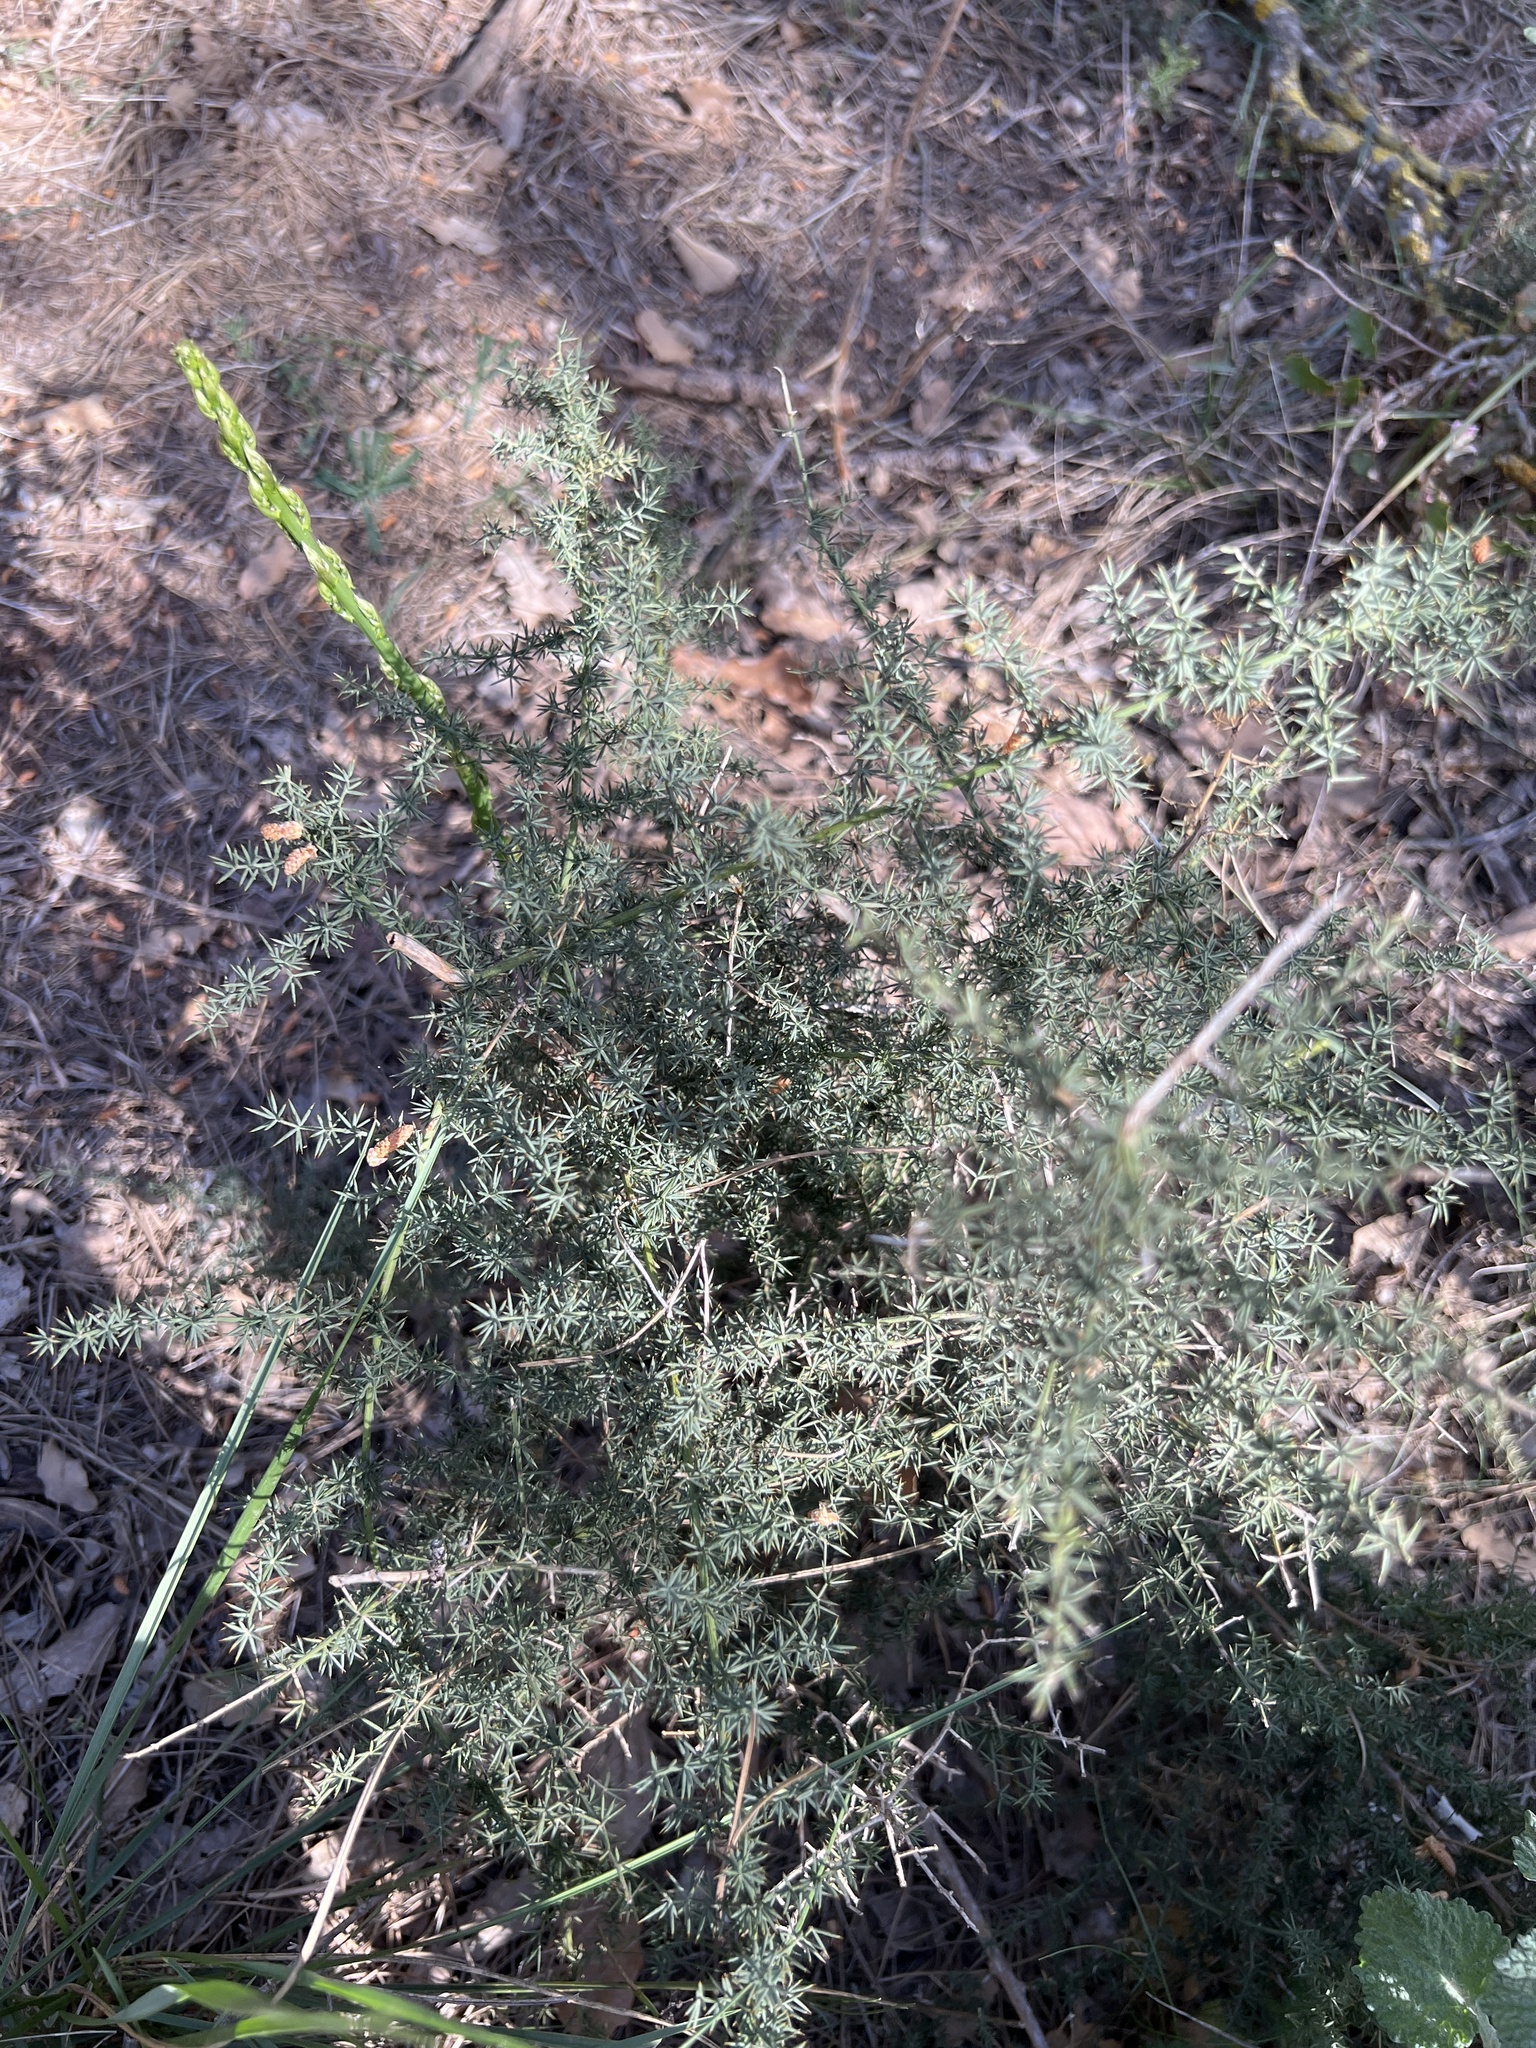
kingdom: Plantae
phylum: Tracheophyta
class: Liliopsida
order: Asparagales
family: Asparagaceae
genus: Asparagus
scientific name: Asparagus acutifolius
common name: Wild asparagus
